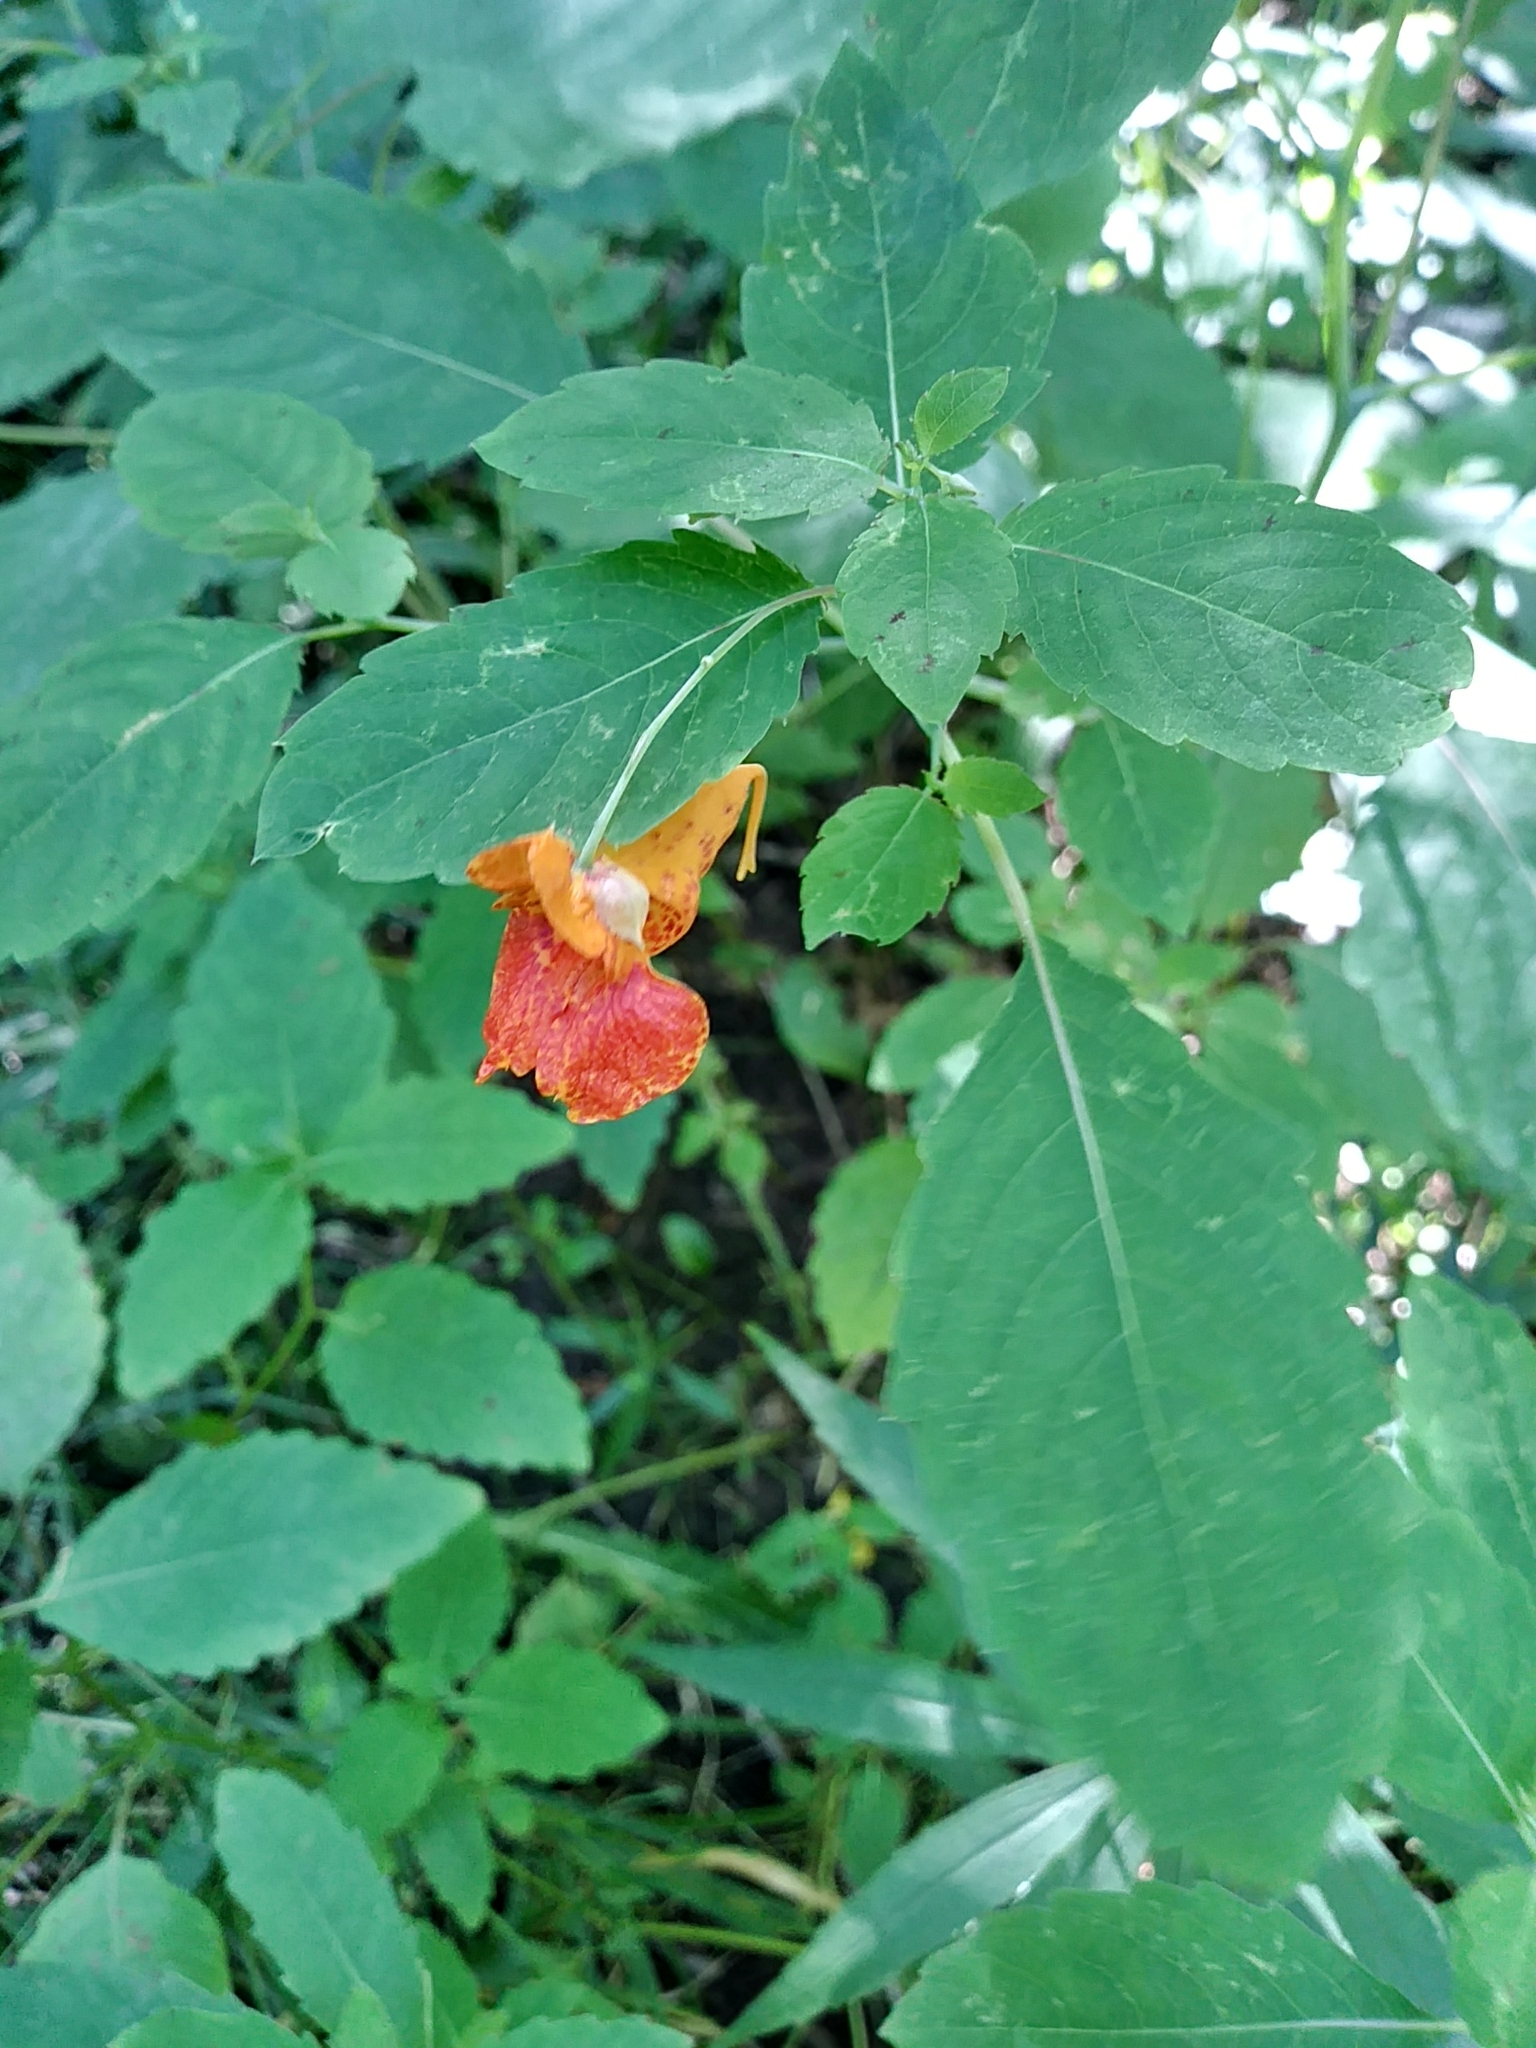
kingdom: Plantae
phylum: Tracheophyta
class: Magnoliopsida
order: Ericales
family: Balsaminaceae
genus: Impatiens
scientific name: Impatiens capensis
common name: Orange balsam
